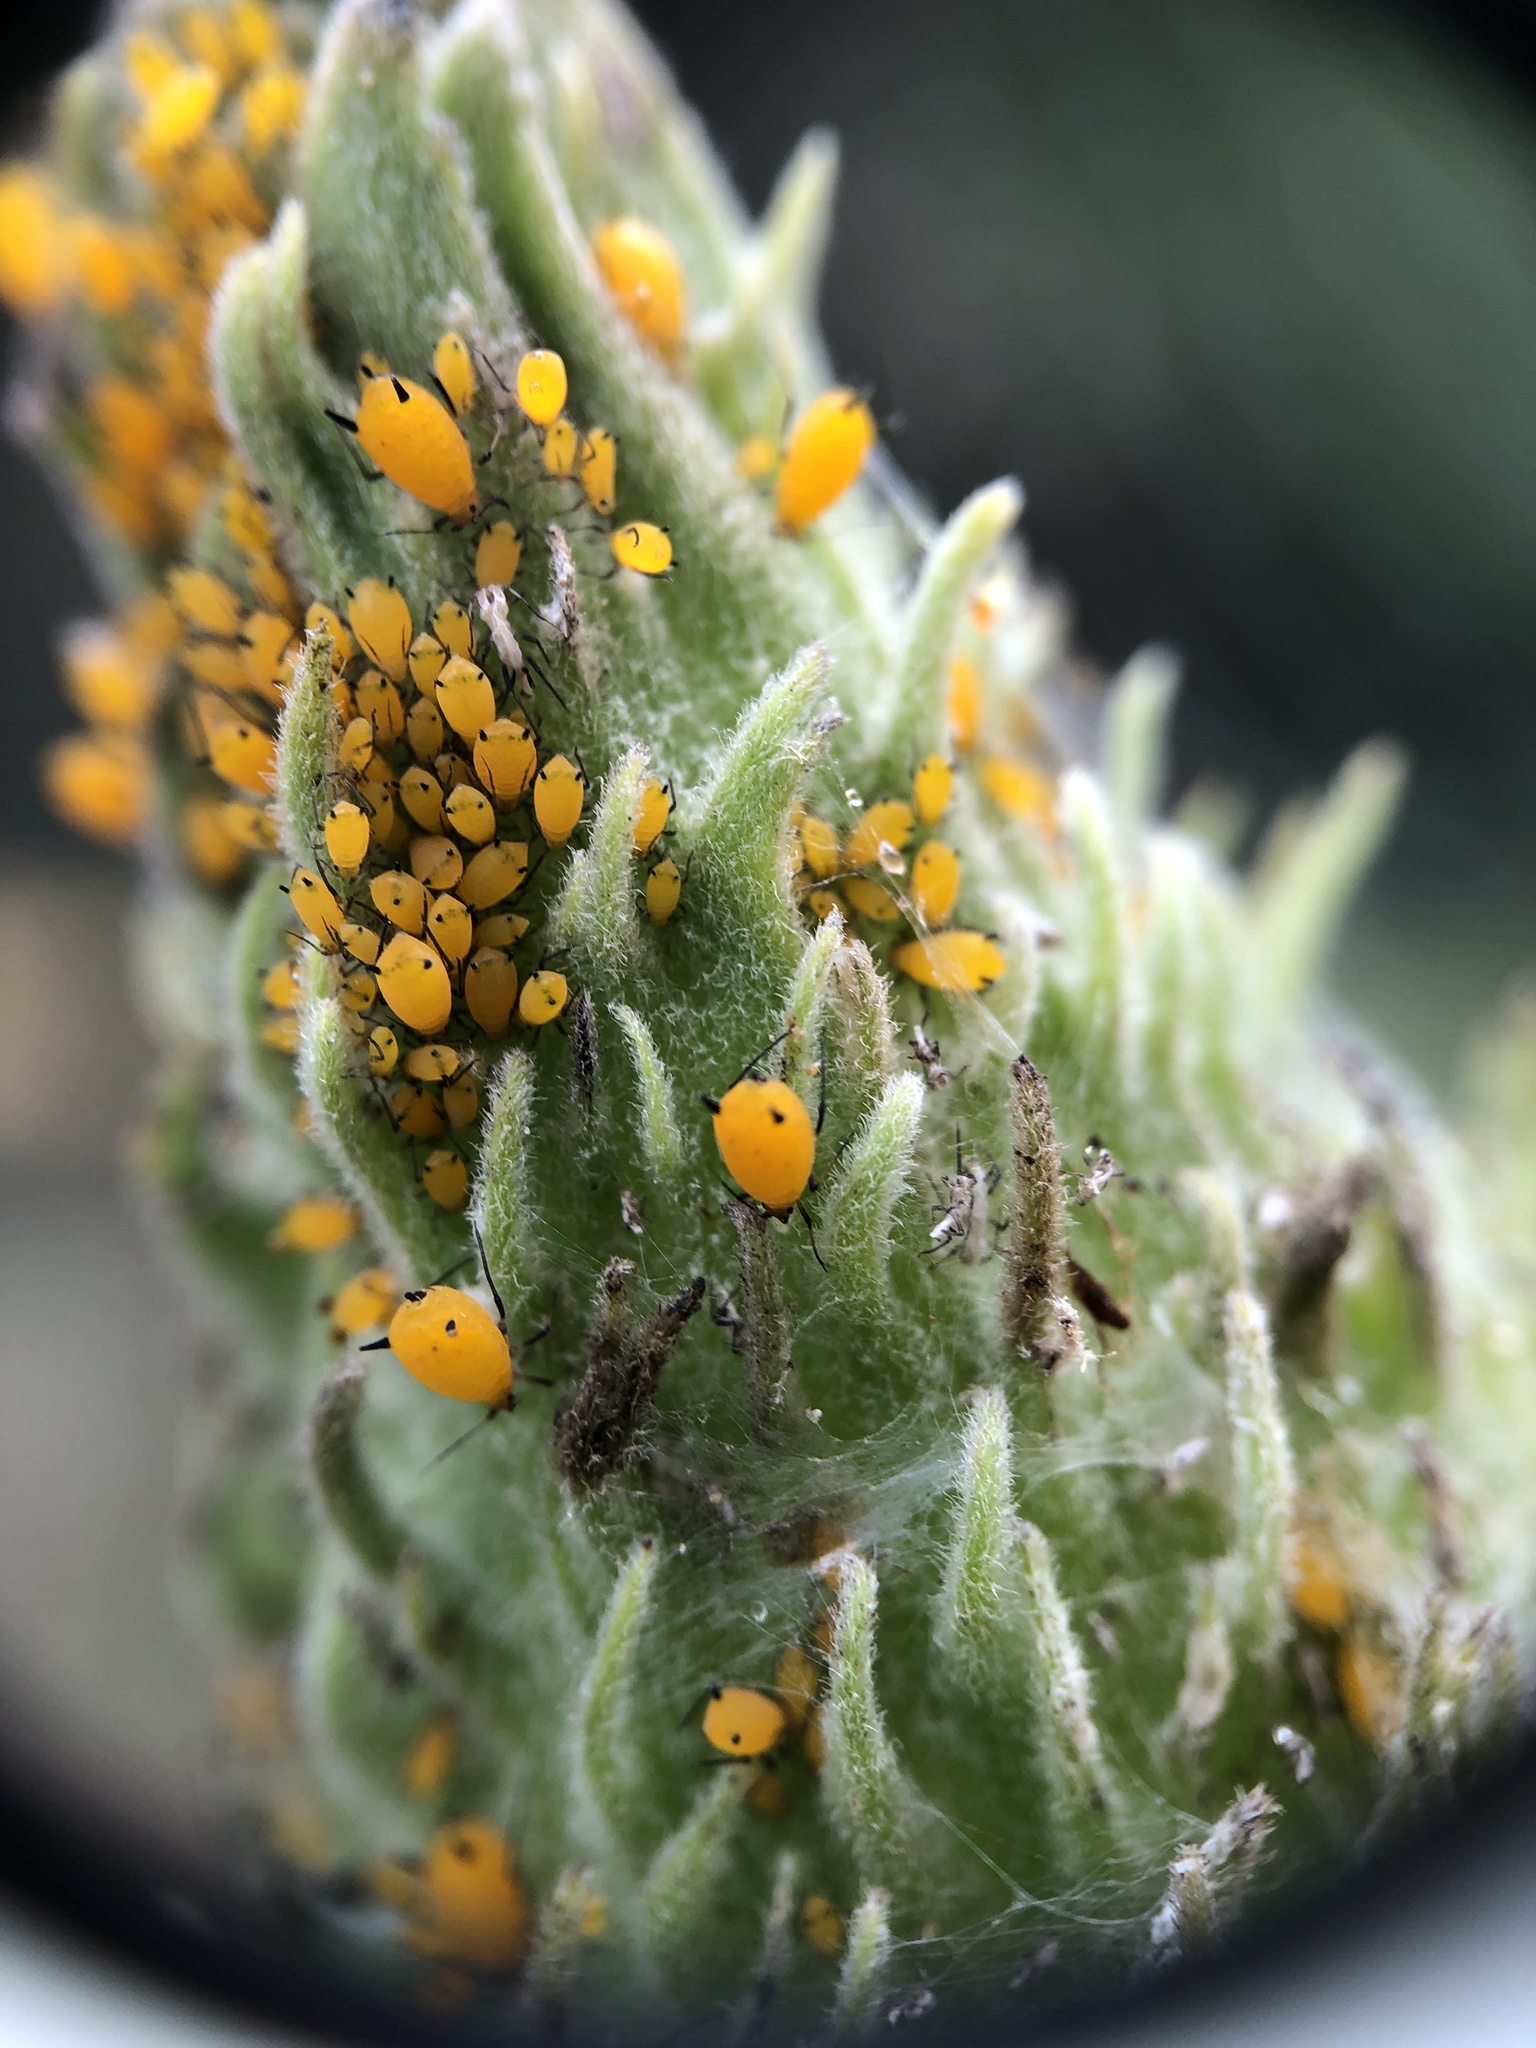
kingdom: Animalia
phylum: Arthropoda
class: Insecta
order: Hemiptera
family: Aphididae
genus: Aphis
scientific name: Aphis nerii
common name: Oleander aphid
